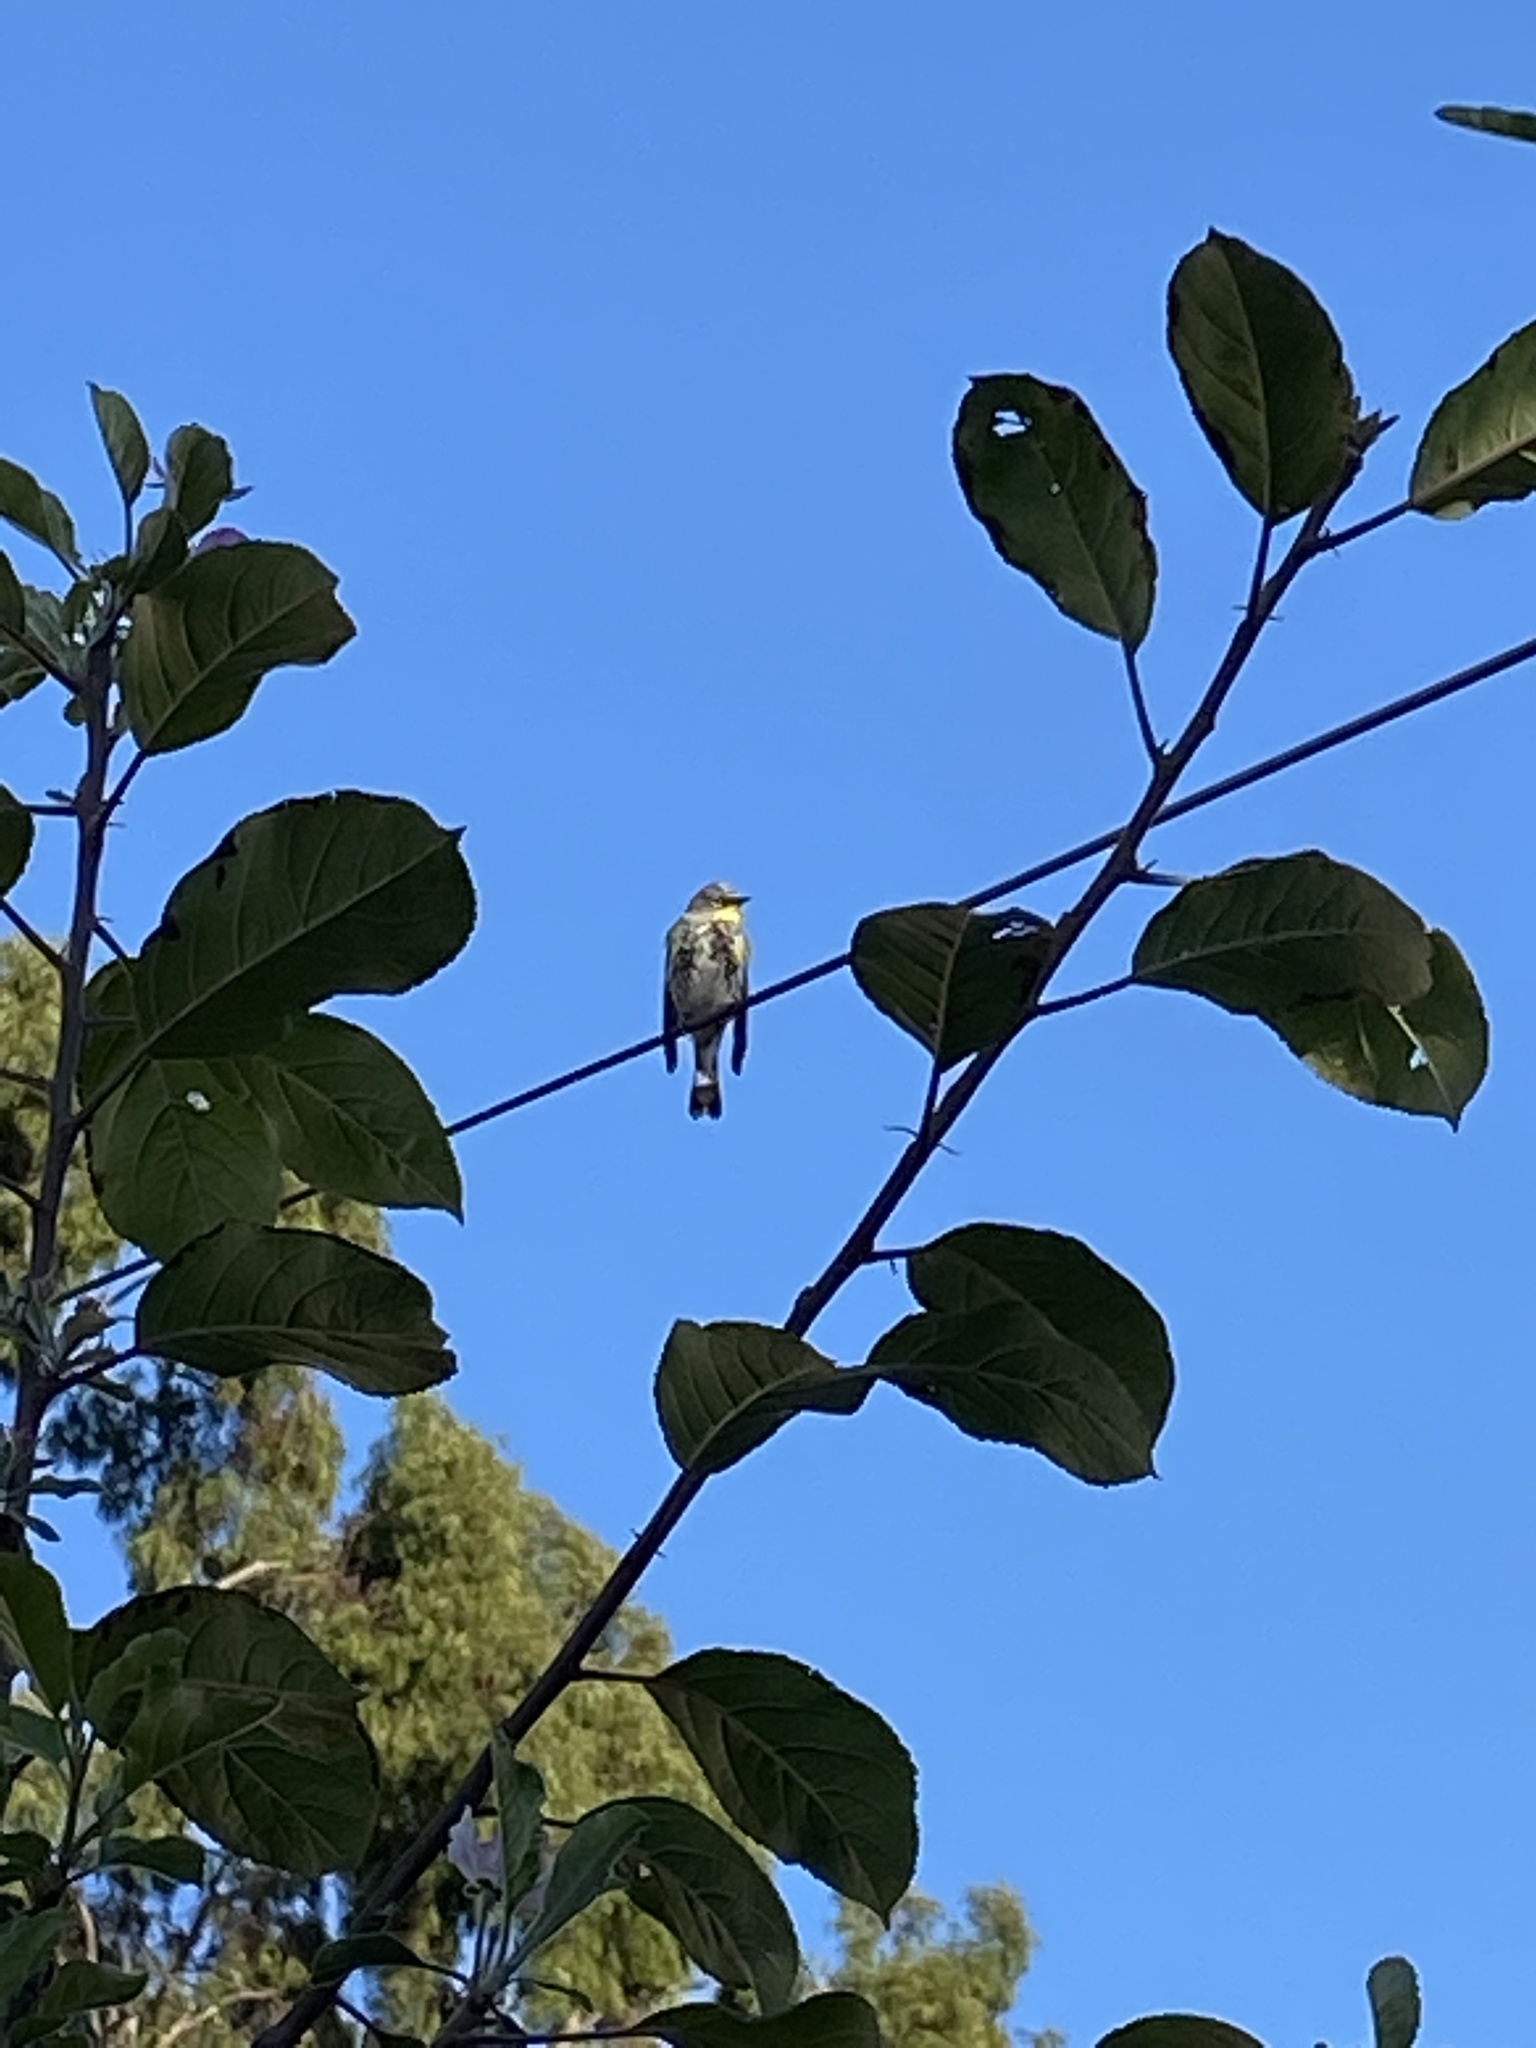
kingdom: Animalia
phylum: Chordata
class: Aves
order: Passeriformes
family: Parulidae
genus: Setophaga
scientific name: Setophaga auduboni
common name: Audubon's warbler
